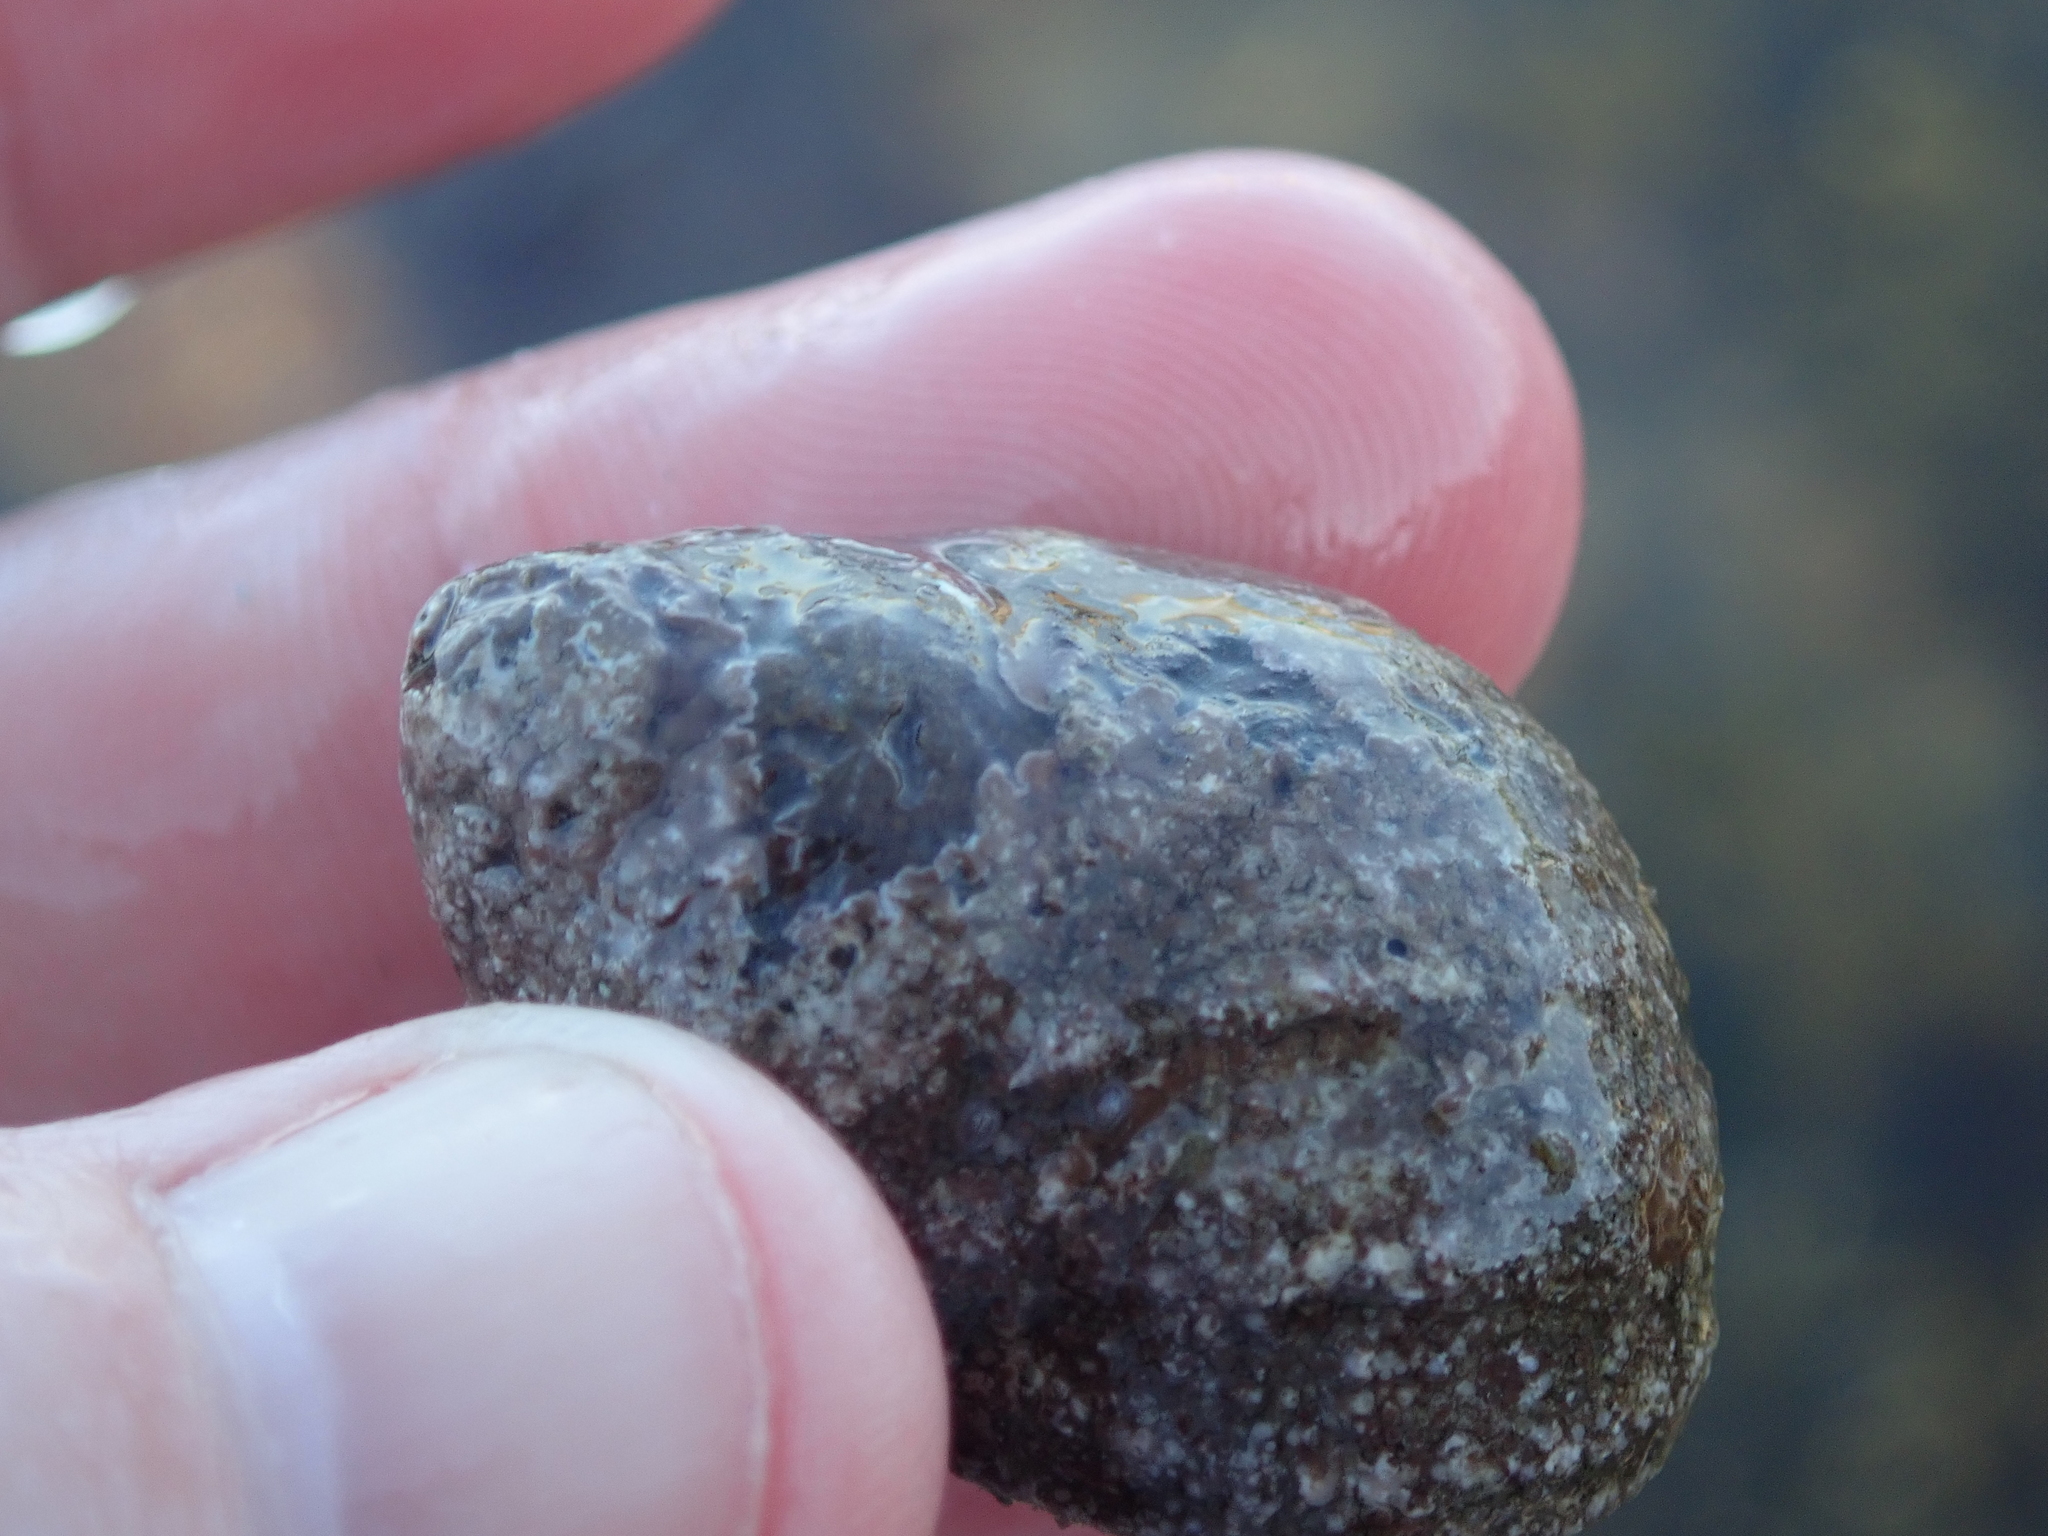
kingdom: Animalia
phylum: Mollusca
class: Gastropoda
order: Littorinimorpha
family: Littorinidae
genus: Littorina
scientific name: Littorina littorea
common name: Common periwinkle
